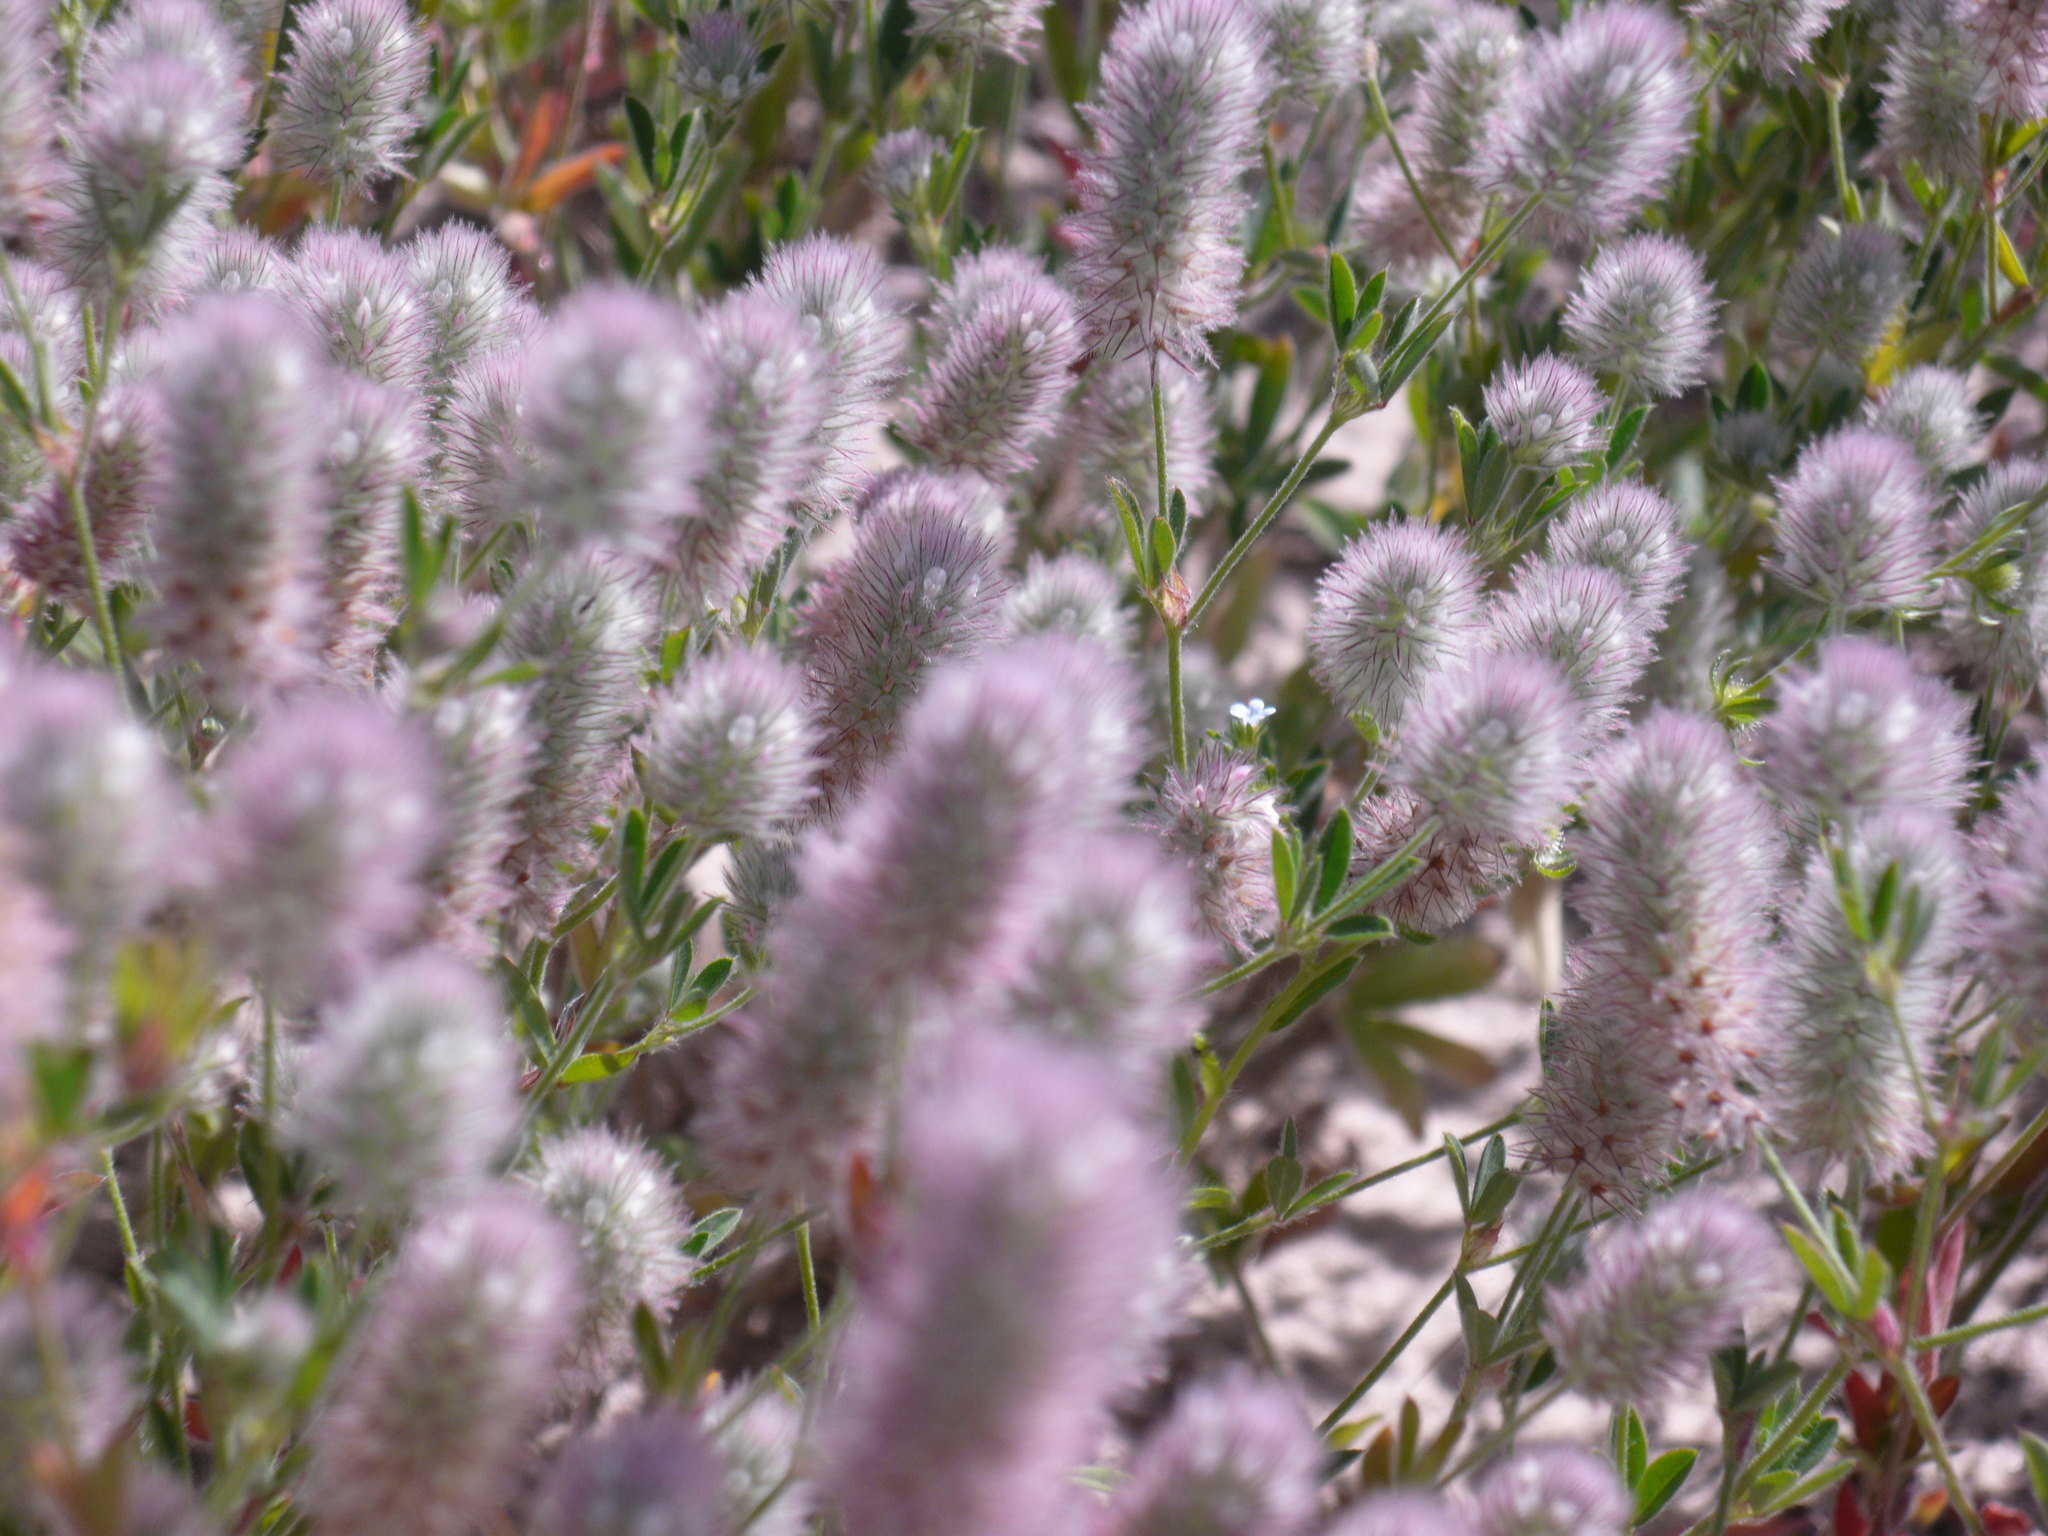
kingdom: Plantae
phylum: Tracheophyta
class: Magnoliopsida
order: Fabales
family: Fabaceae
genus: Trifolium
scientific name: Trifolium arvense
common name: Hare's-foot clover
